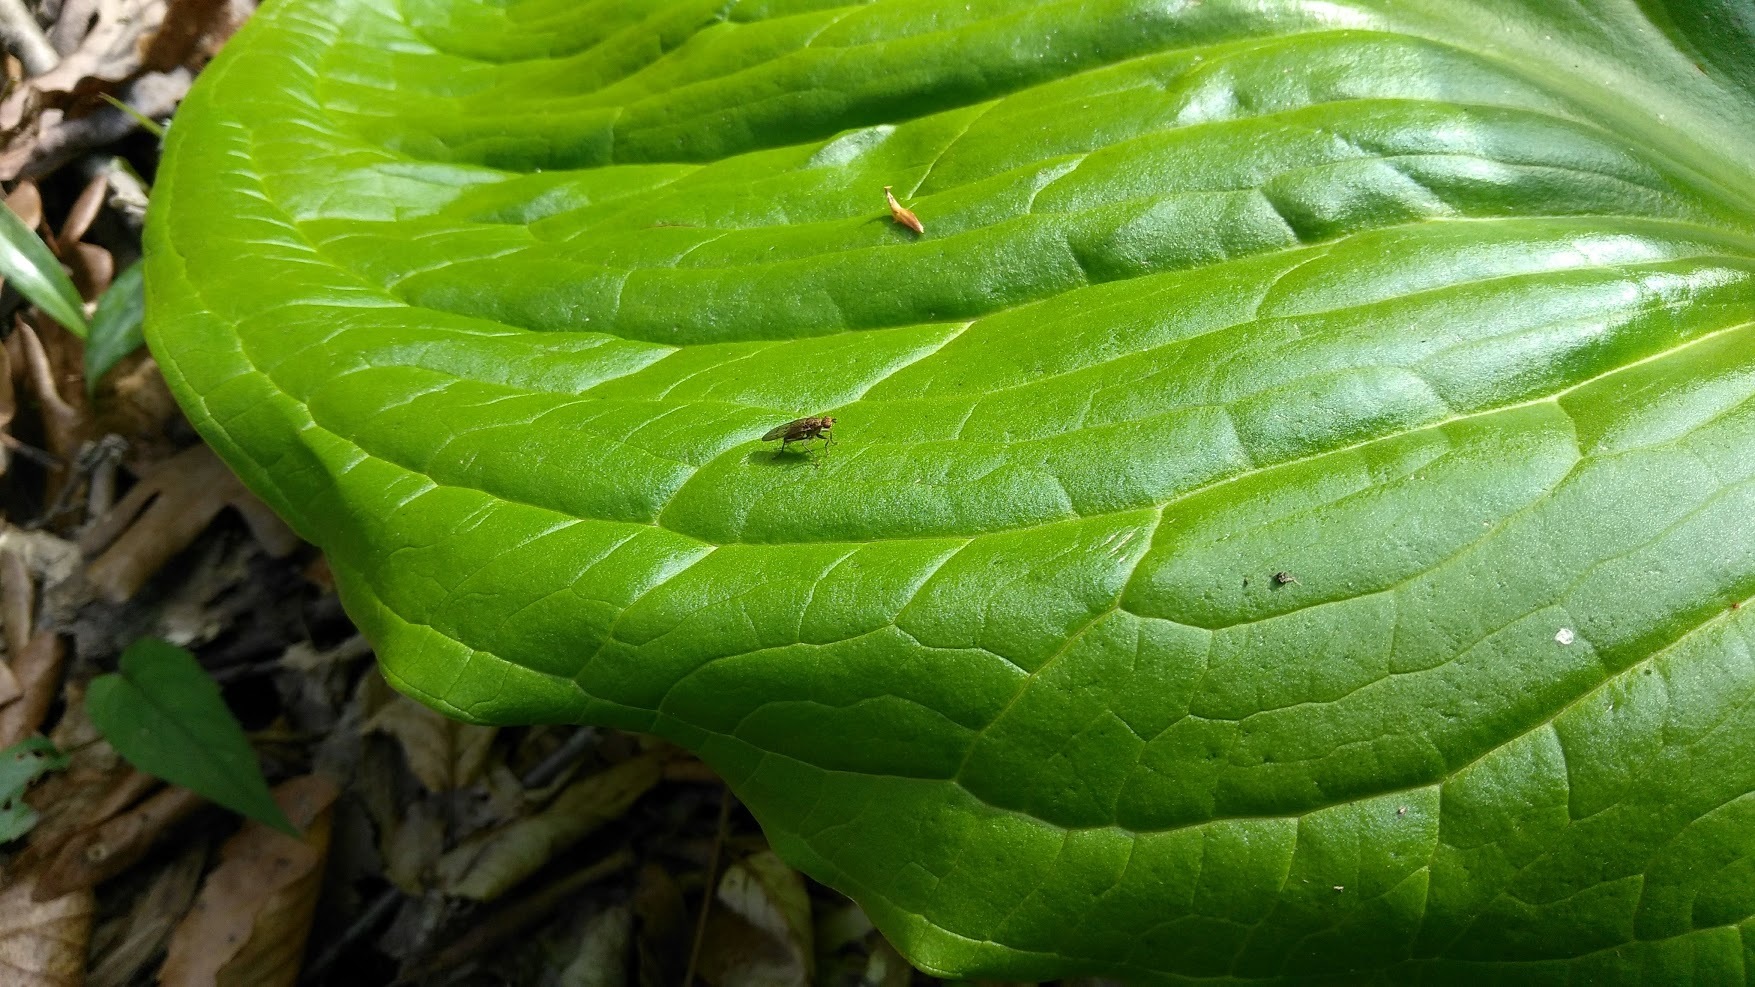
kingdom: Animalia
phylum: Arthropoda
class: Insecta
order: Diptera
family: Scathophagidae
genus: Scathophaga
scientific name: Scathophaga
